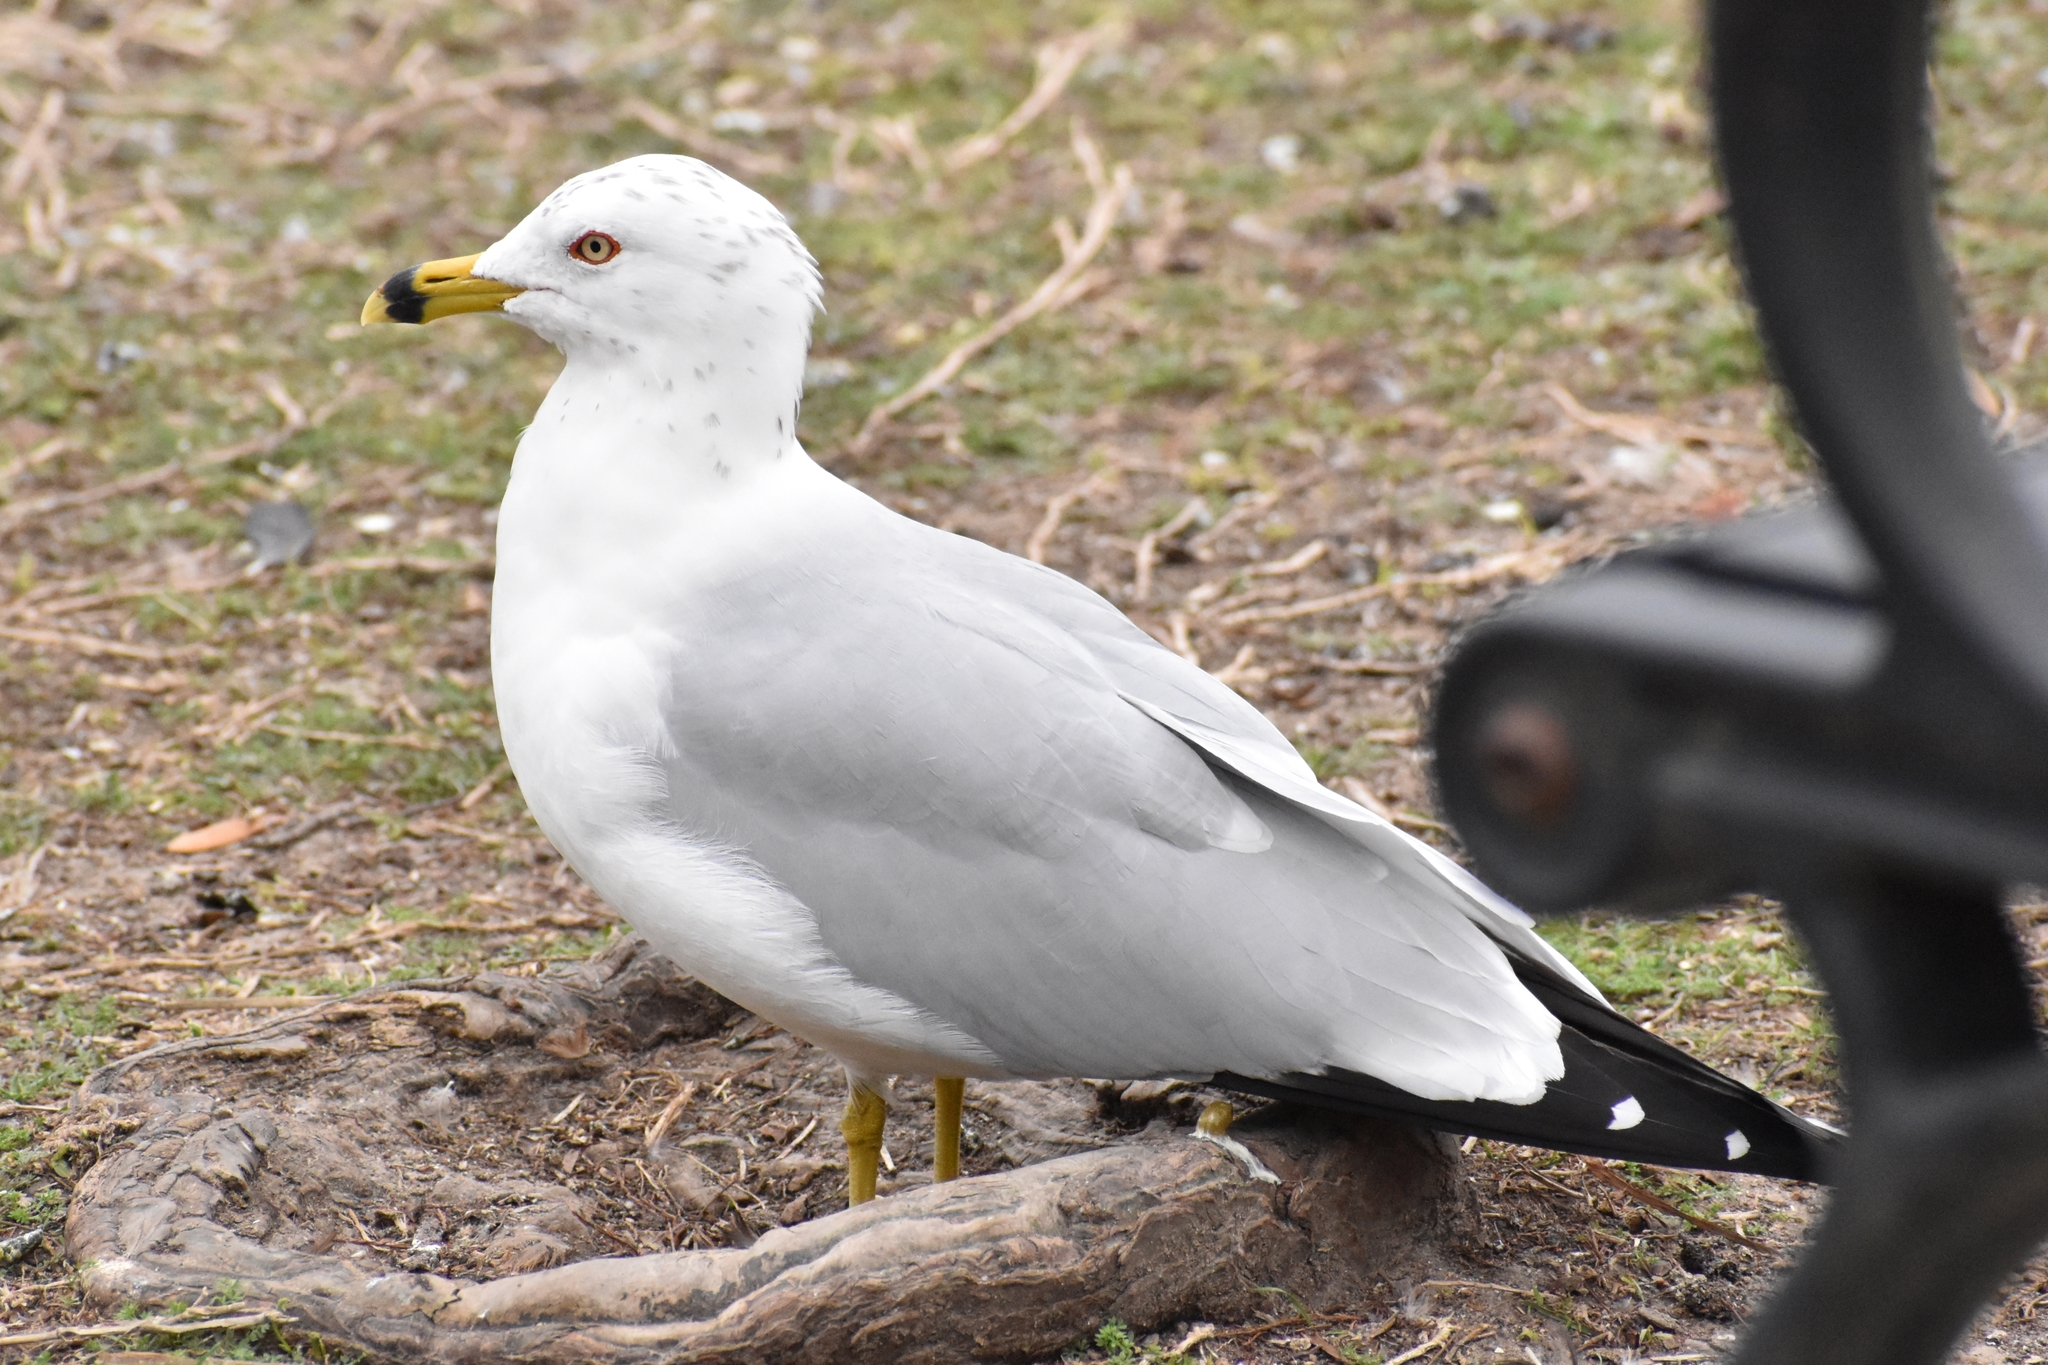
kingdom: Animalia
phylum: Chordata
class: Aves
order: Charadriiformes
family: Laridae
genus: Larus
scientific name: Larus delawarensis
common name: Ring-billed gull
